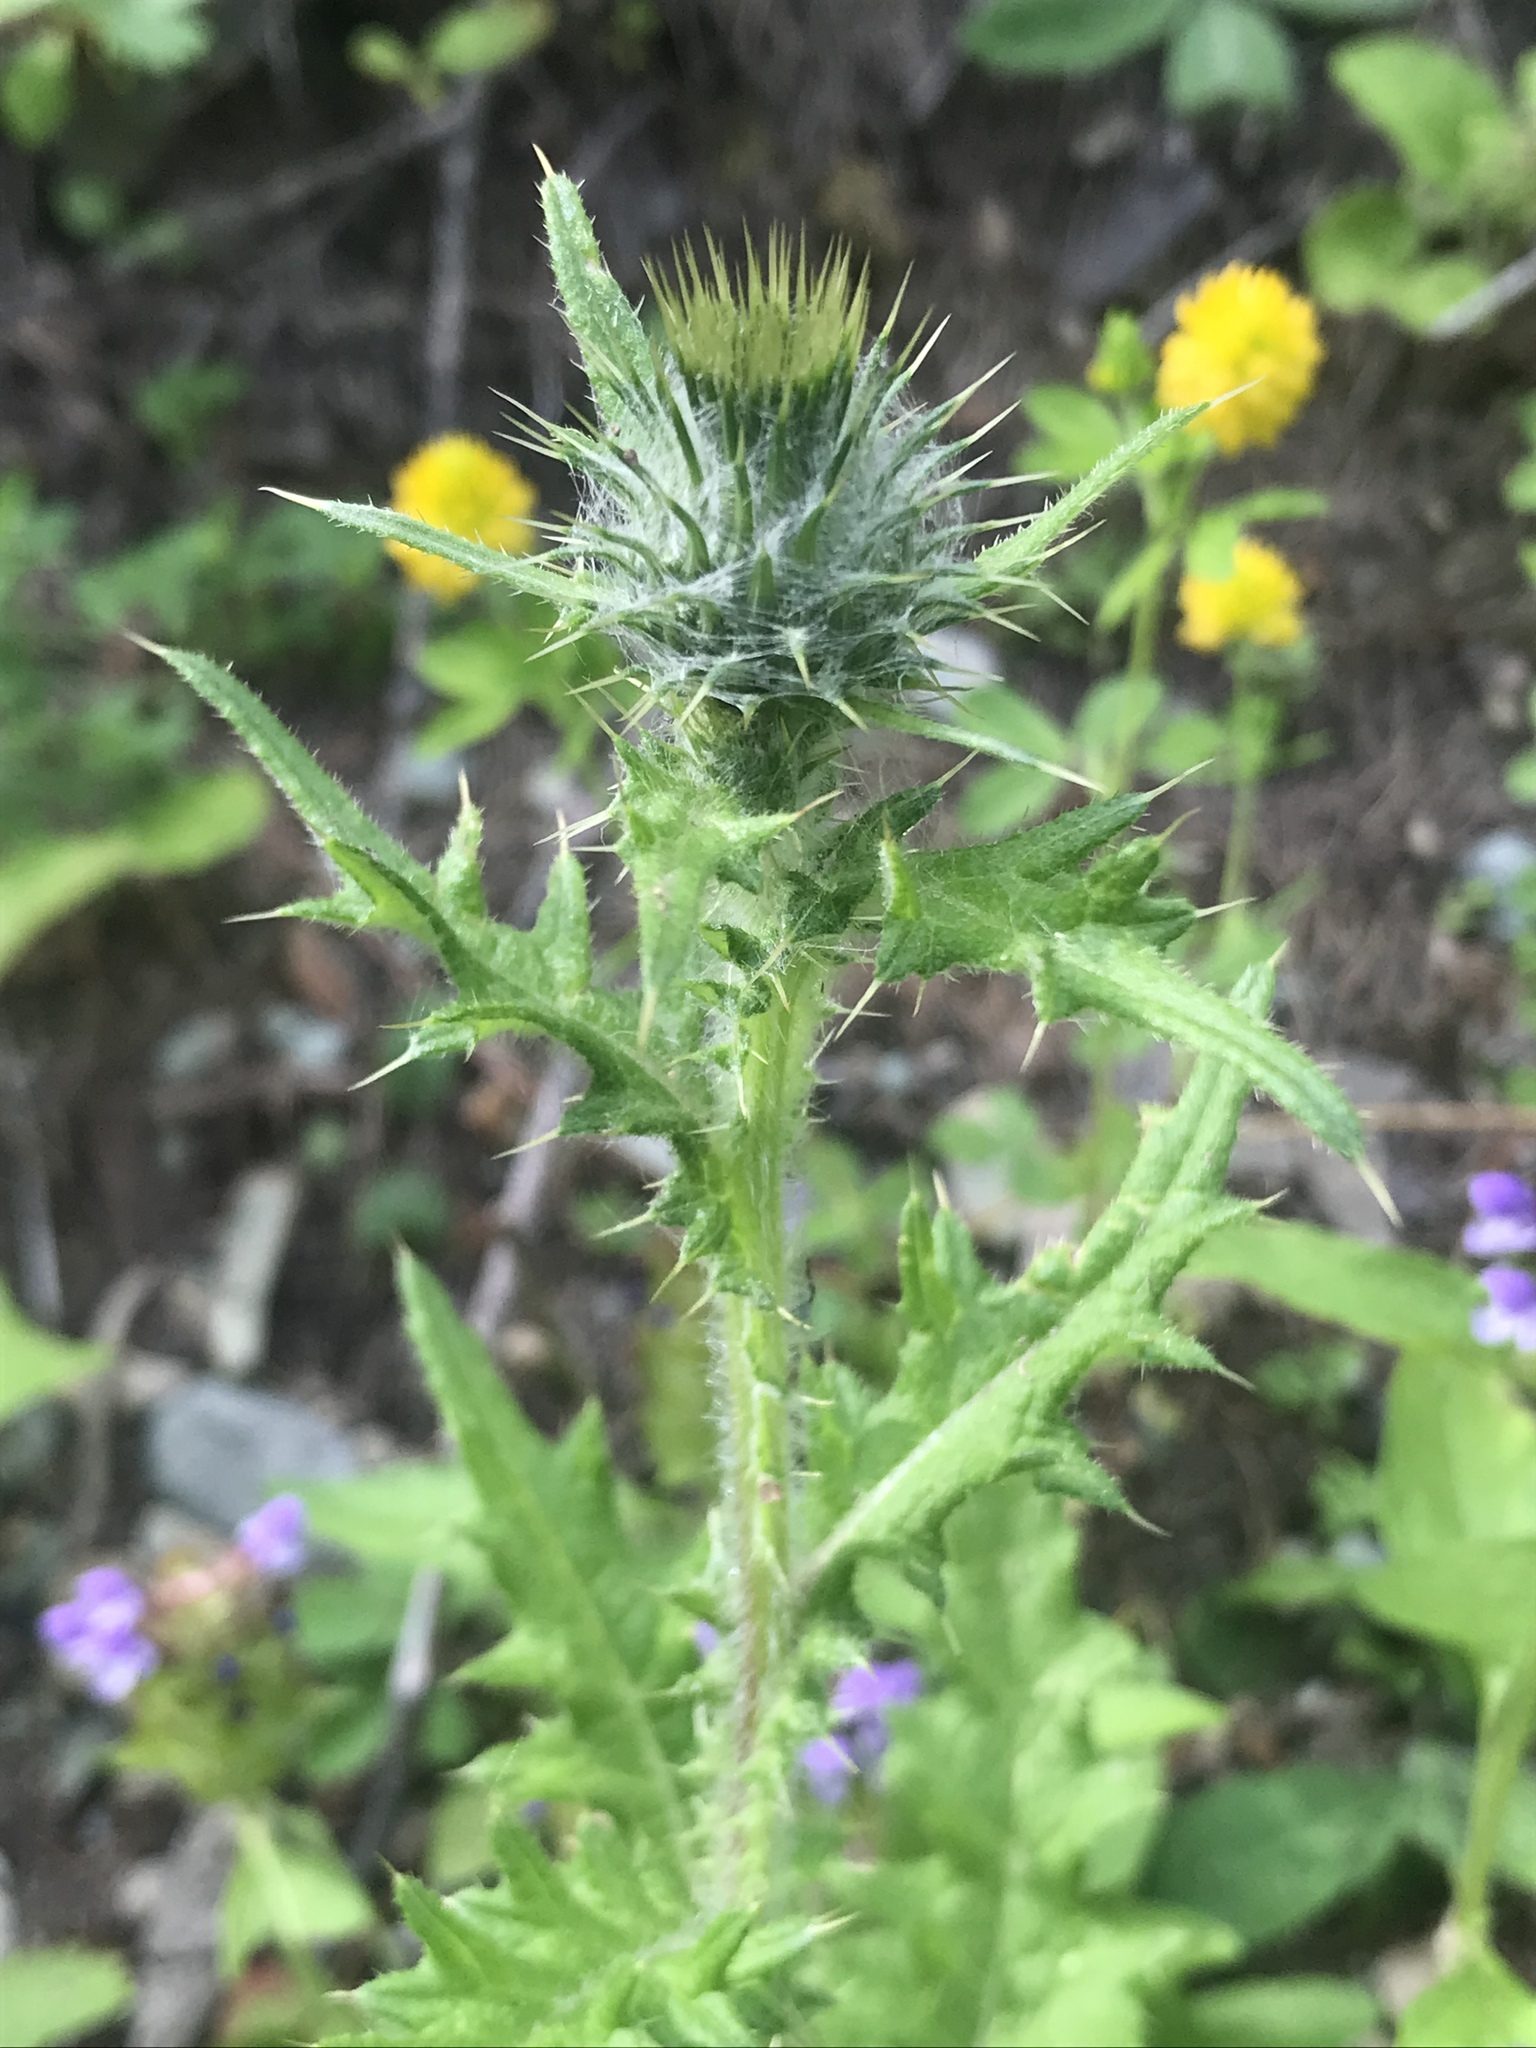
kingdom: Plantae
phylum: Tracheophyta
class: Magnoliopsida
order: Asterales
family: Asteraceae
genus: Cirsium
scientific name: Cirsium vulgare
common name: Bull thistle
